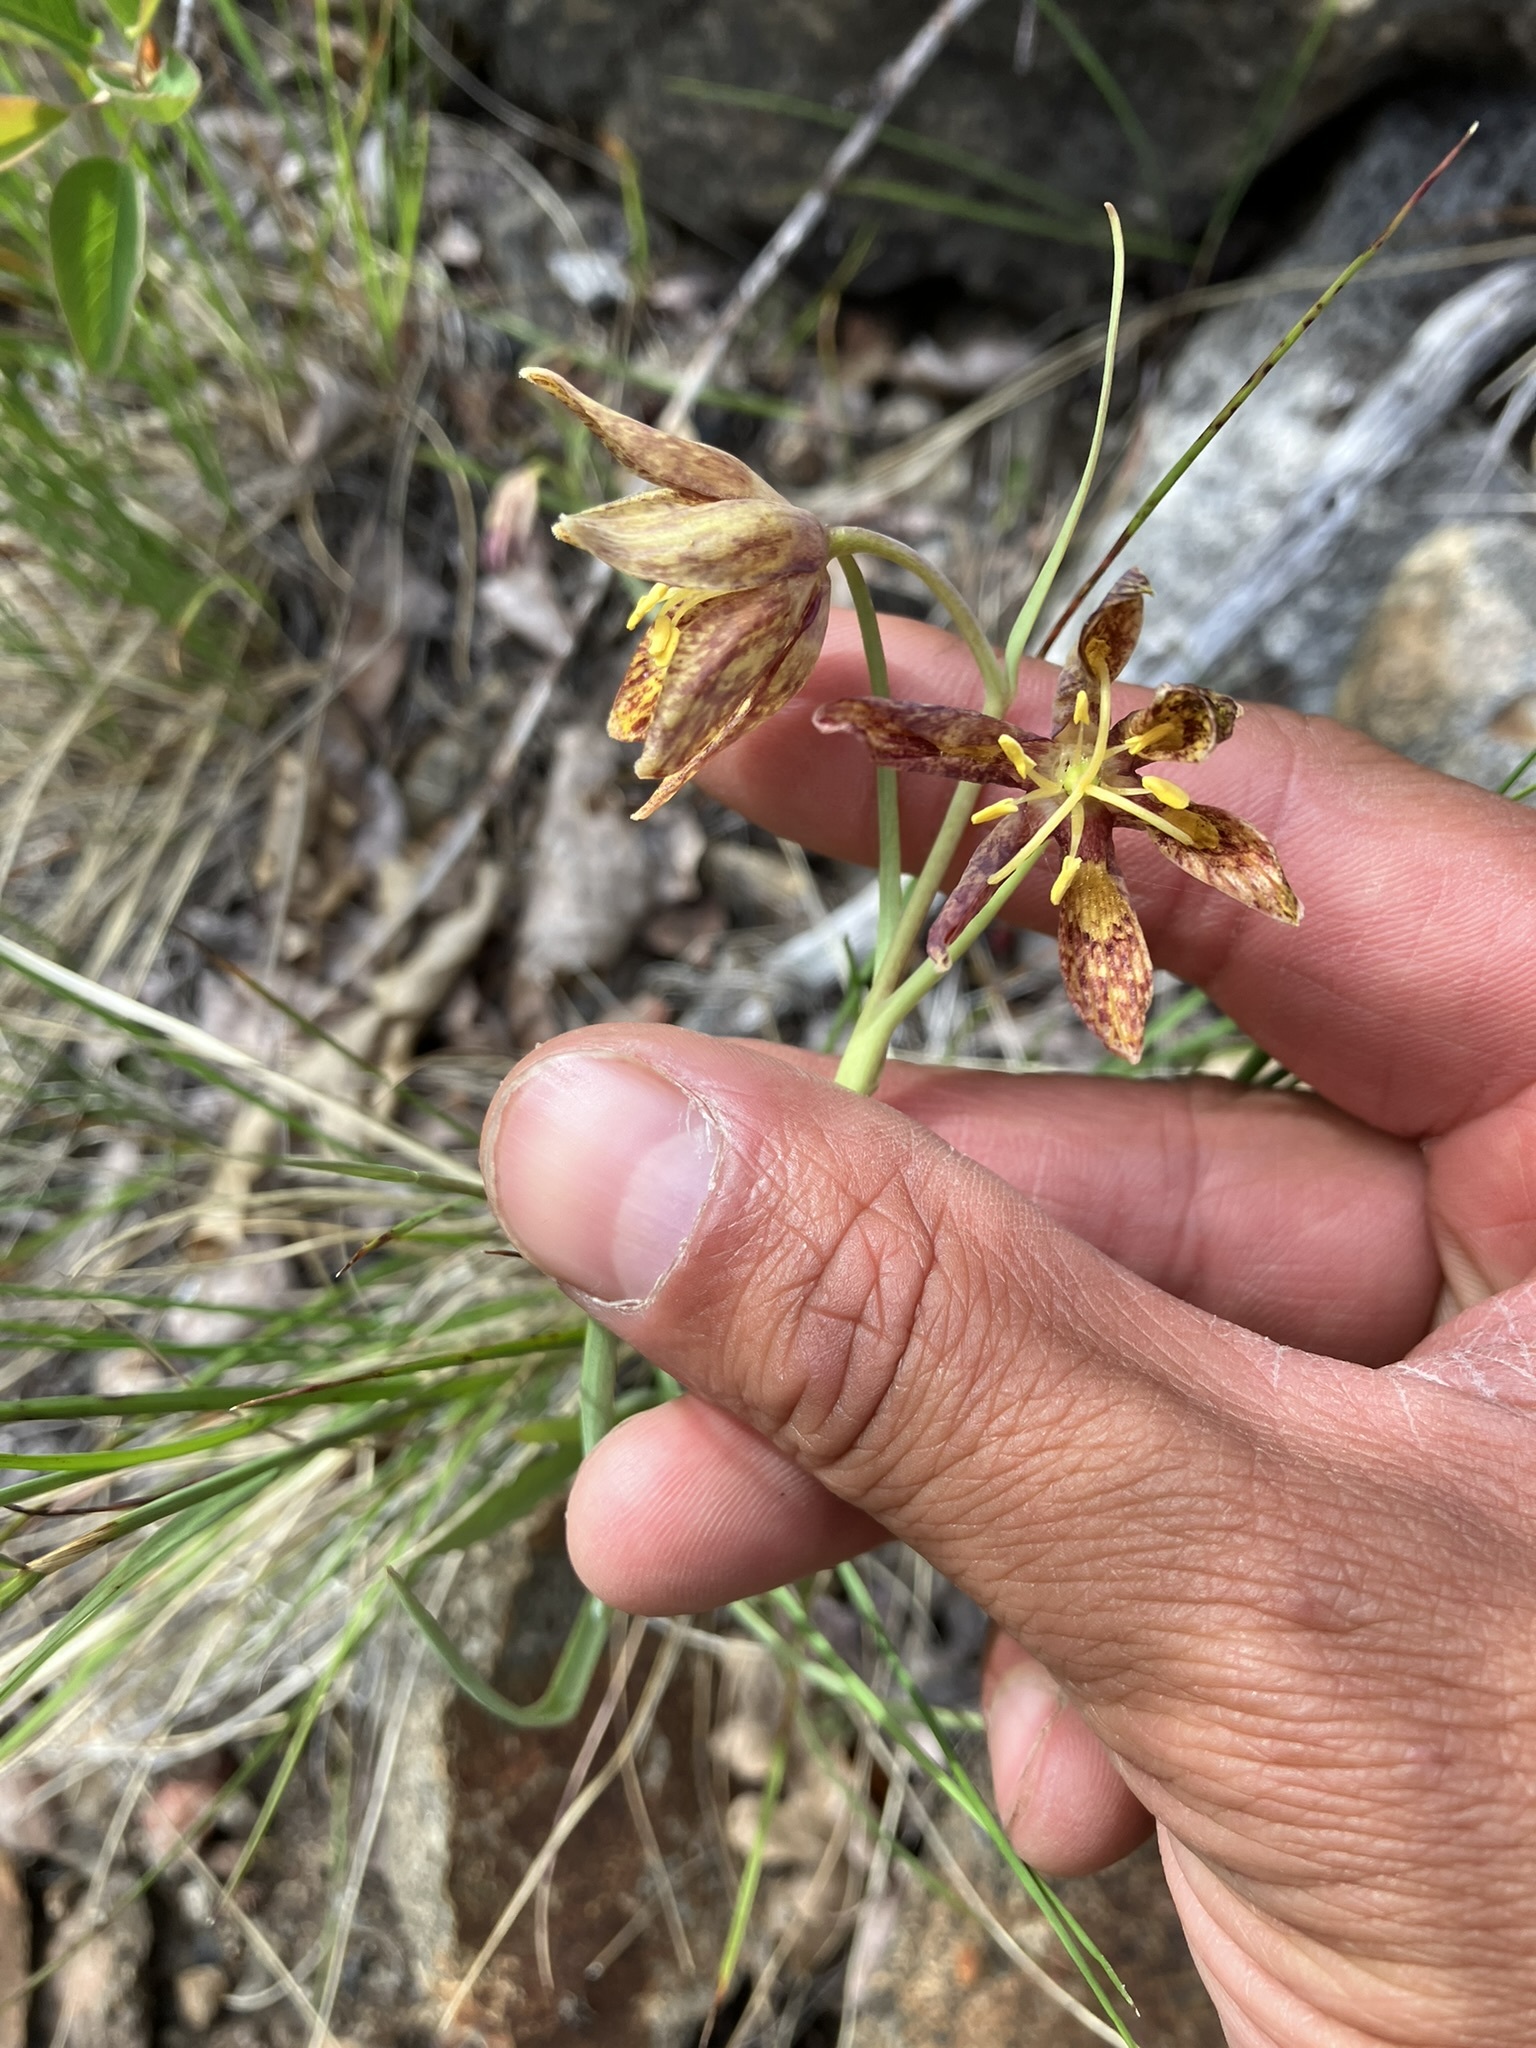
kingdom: Plantae
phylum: Tracheophyta
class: Liliopsida
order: Liliales
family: Liliaceae
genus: Fritillaria
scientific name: Fritillaria atropurpurea
